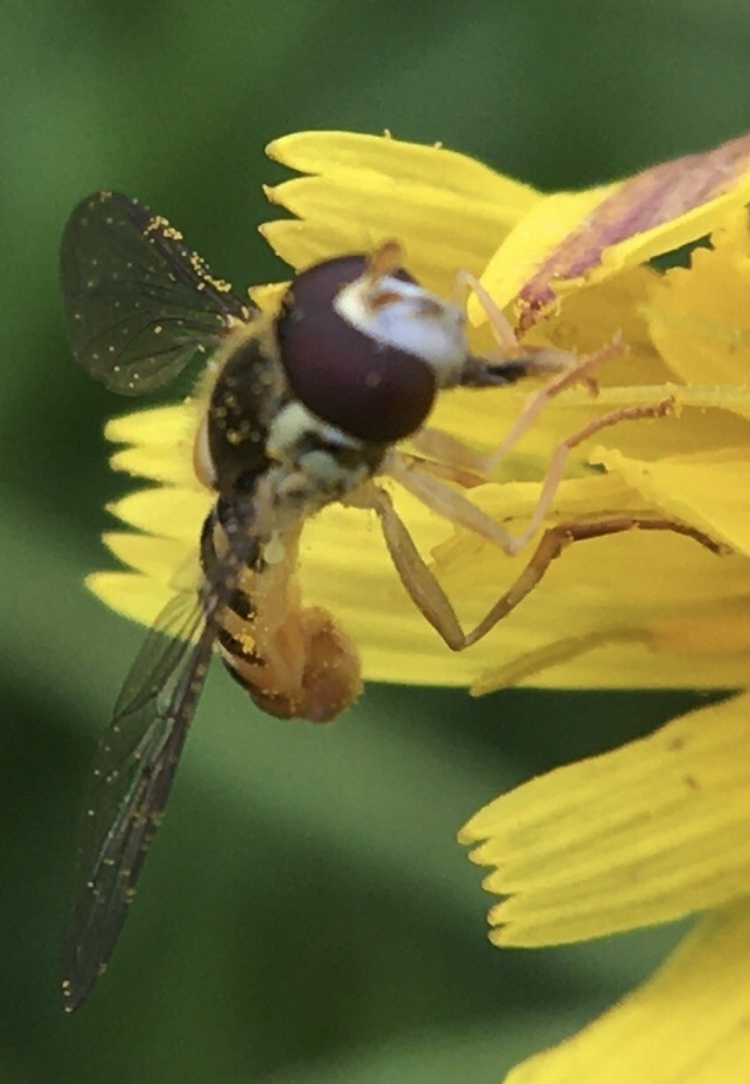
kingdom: Animalia
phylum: Arthropoda
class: Insecta
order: Diptera
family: Syrphidae
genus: Sphaerophoria
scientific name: Sphaerophoria rueppellii
